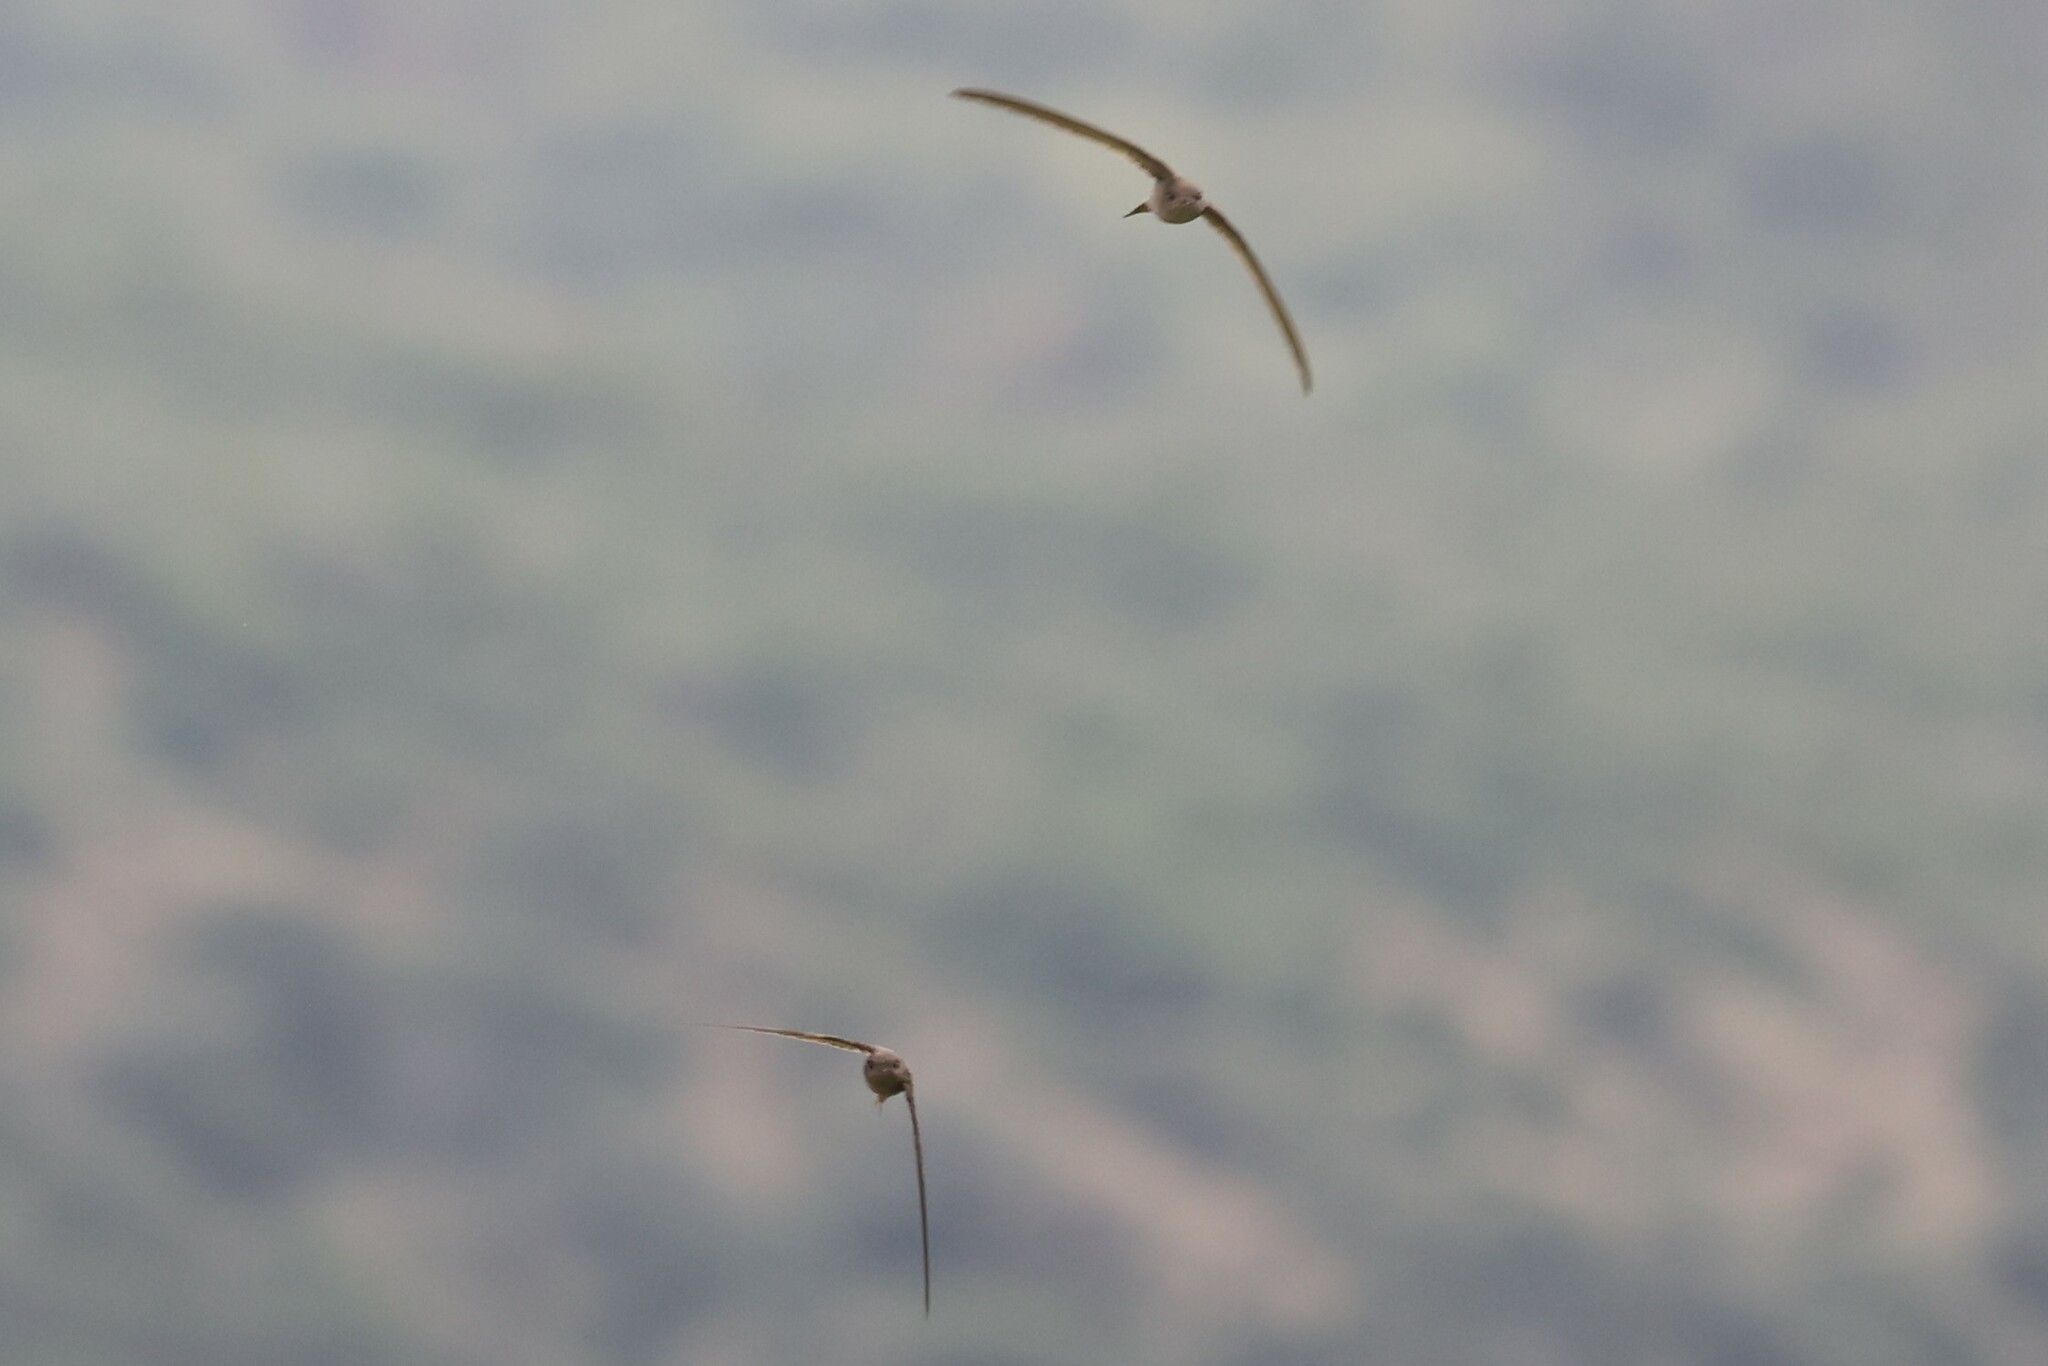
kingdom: Animalia
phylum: Chordata
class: Aves
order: Apodiformes
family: Apodidae
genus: Cypsiurus
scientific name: Cypsiurus parvus
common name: African palm swift
